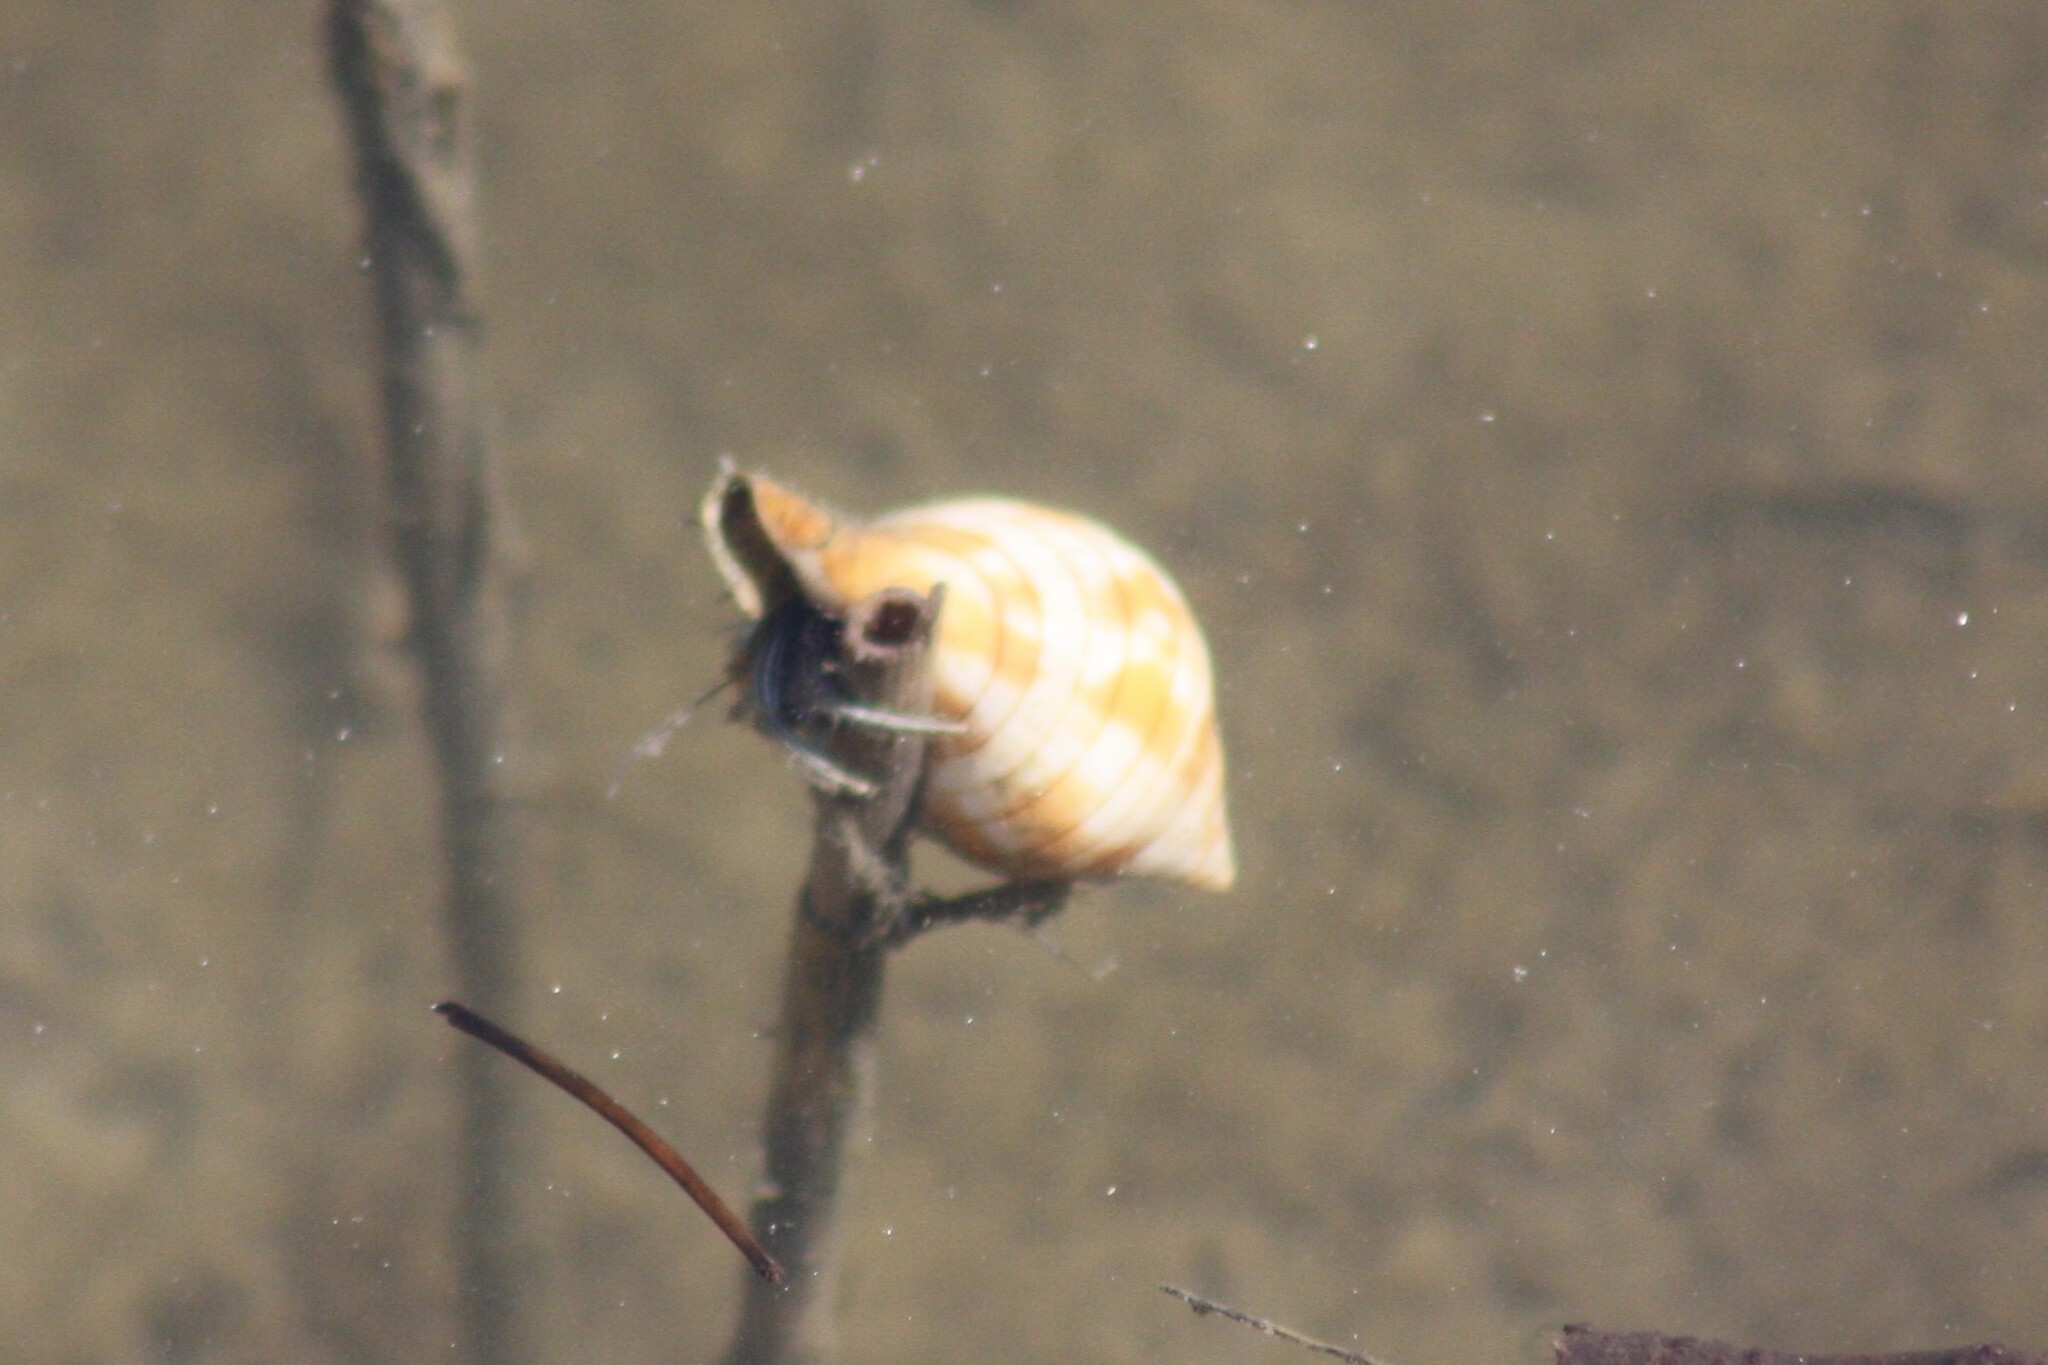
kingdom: Animalia
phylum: Mollusca
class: Gastropoda
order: Littorinimorpha
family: Cassidae
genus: Semicassis
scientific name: Semicassis granulata
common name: Scotch bonnet
